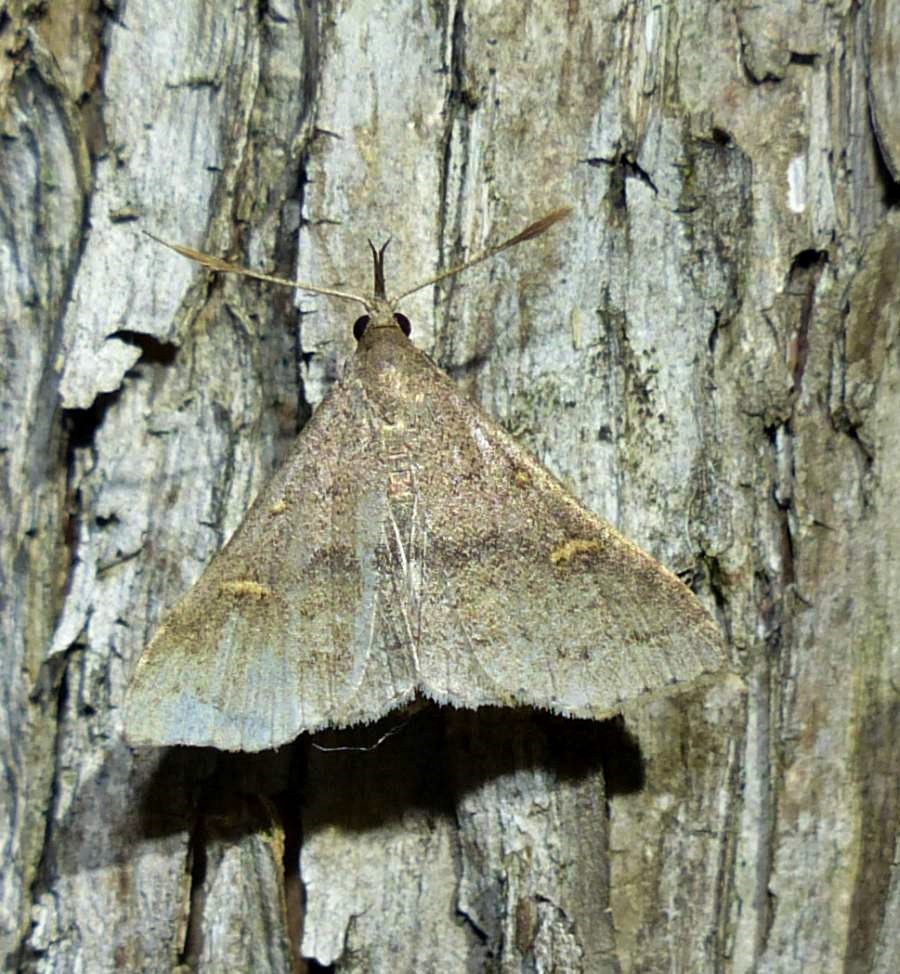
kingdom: Animalia
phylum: Arthropoda
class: Insecta
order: Lepidoptera
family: Erebidae
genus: Renia
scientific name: Renia flavipunctalis
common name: Yellow-spotted renia moth
